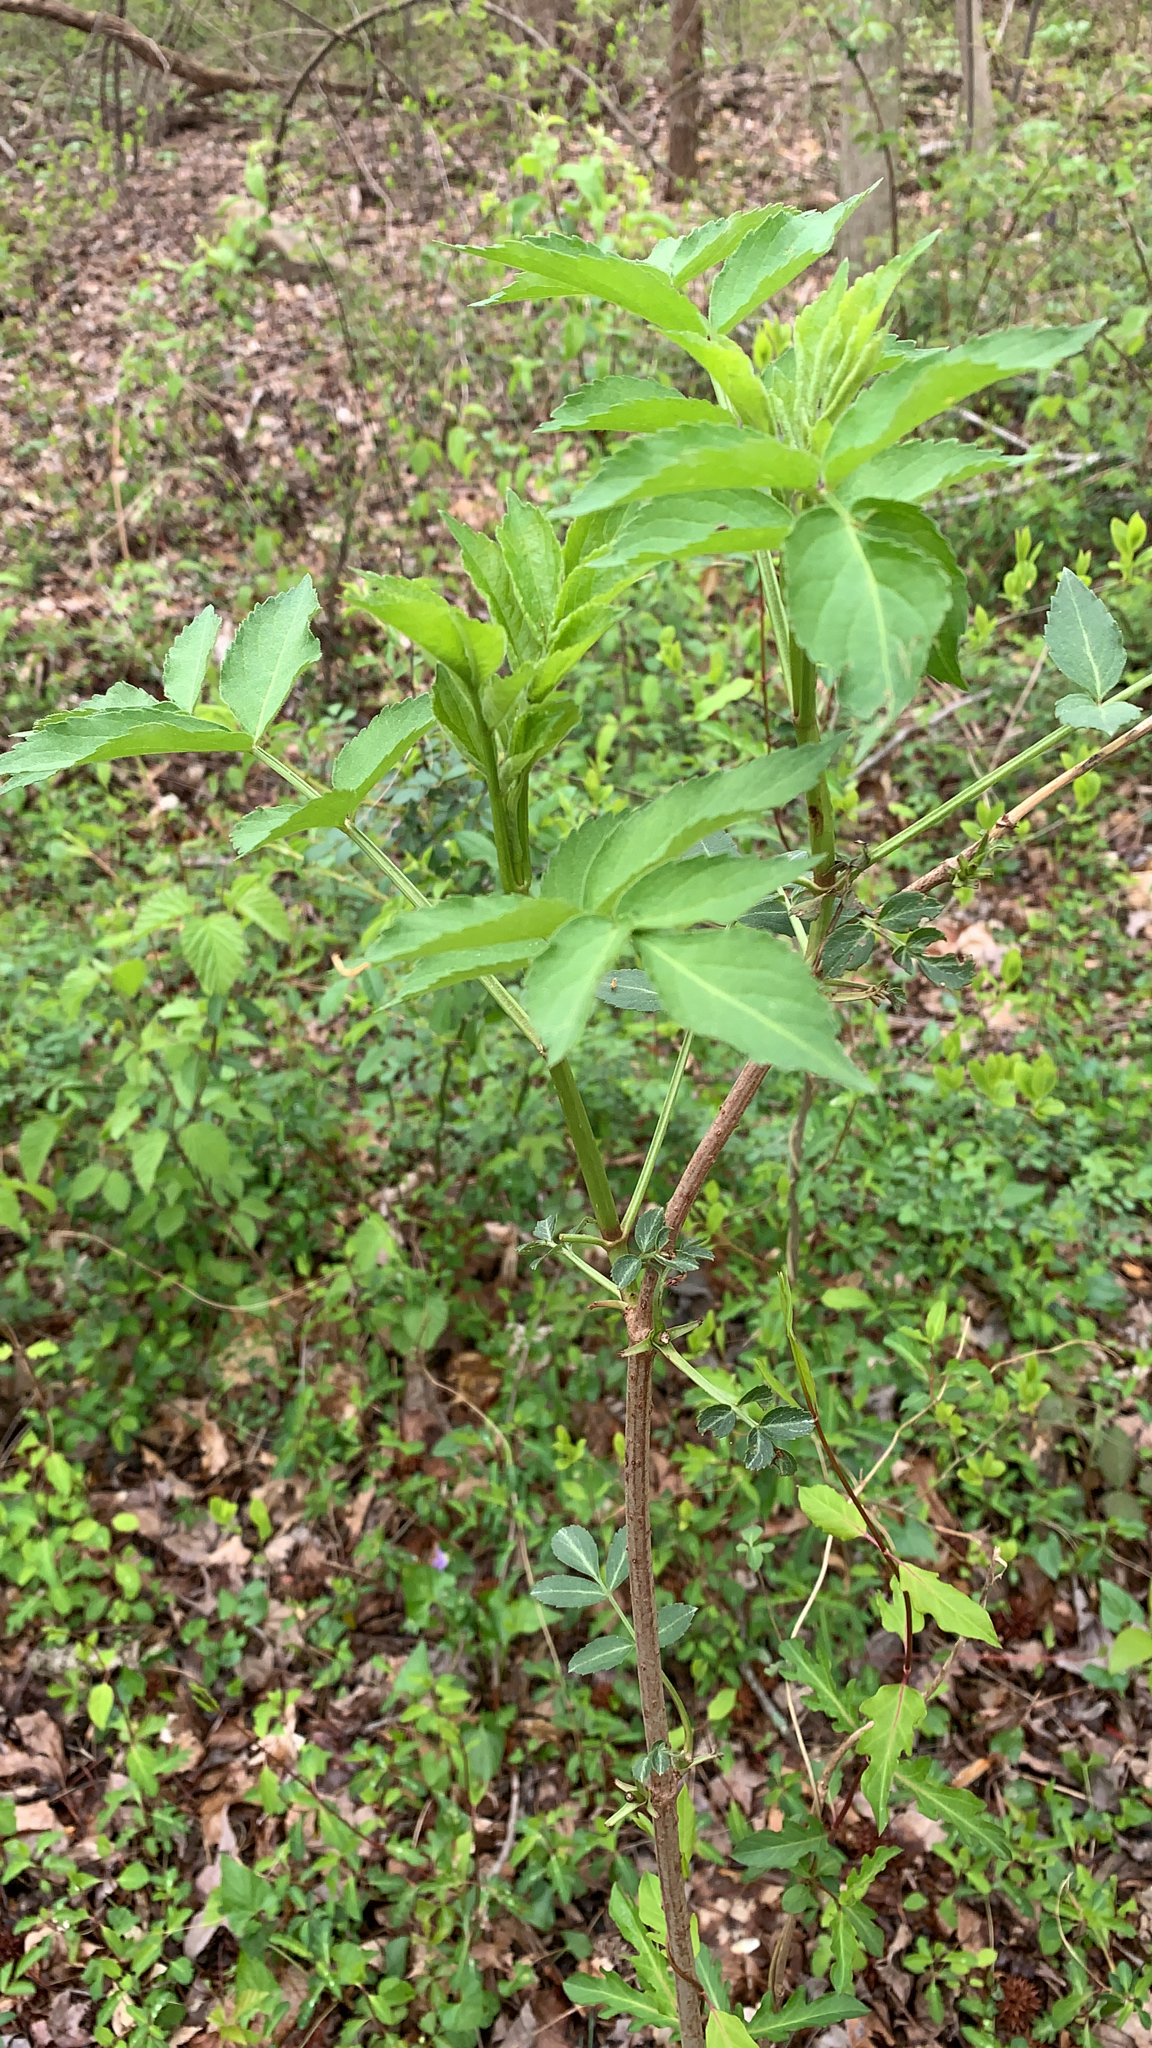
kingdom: Plantae
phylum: Tracheophyta
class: Magnoliopsida
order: Dipsacales
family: Viburnaceae
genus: Sambucus
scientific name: Sambucus
